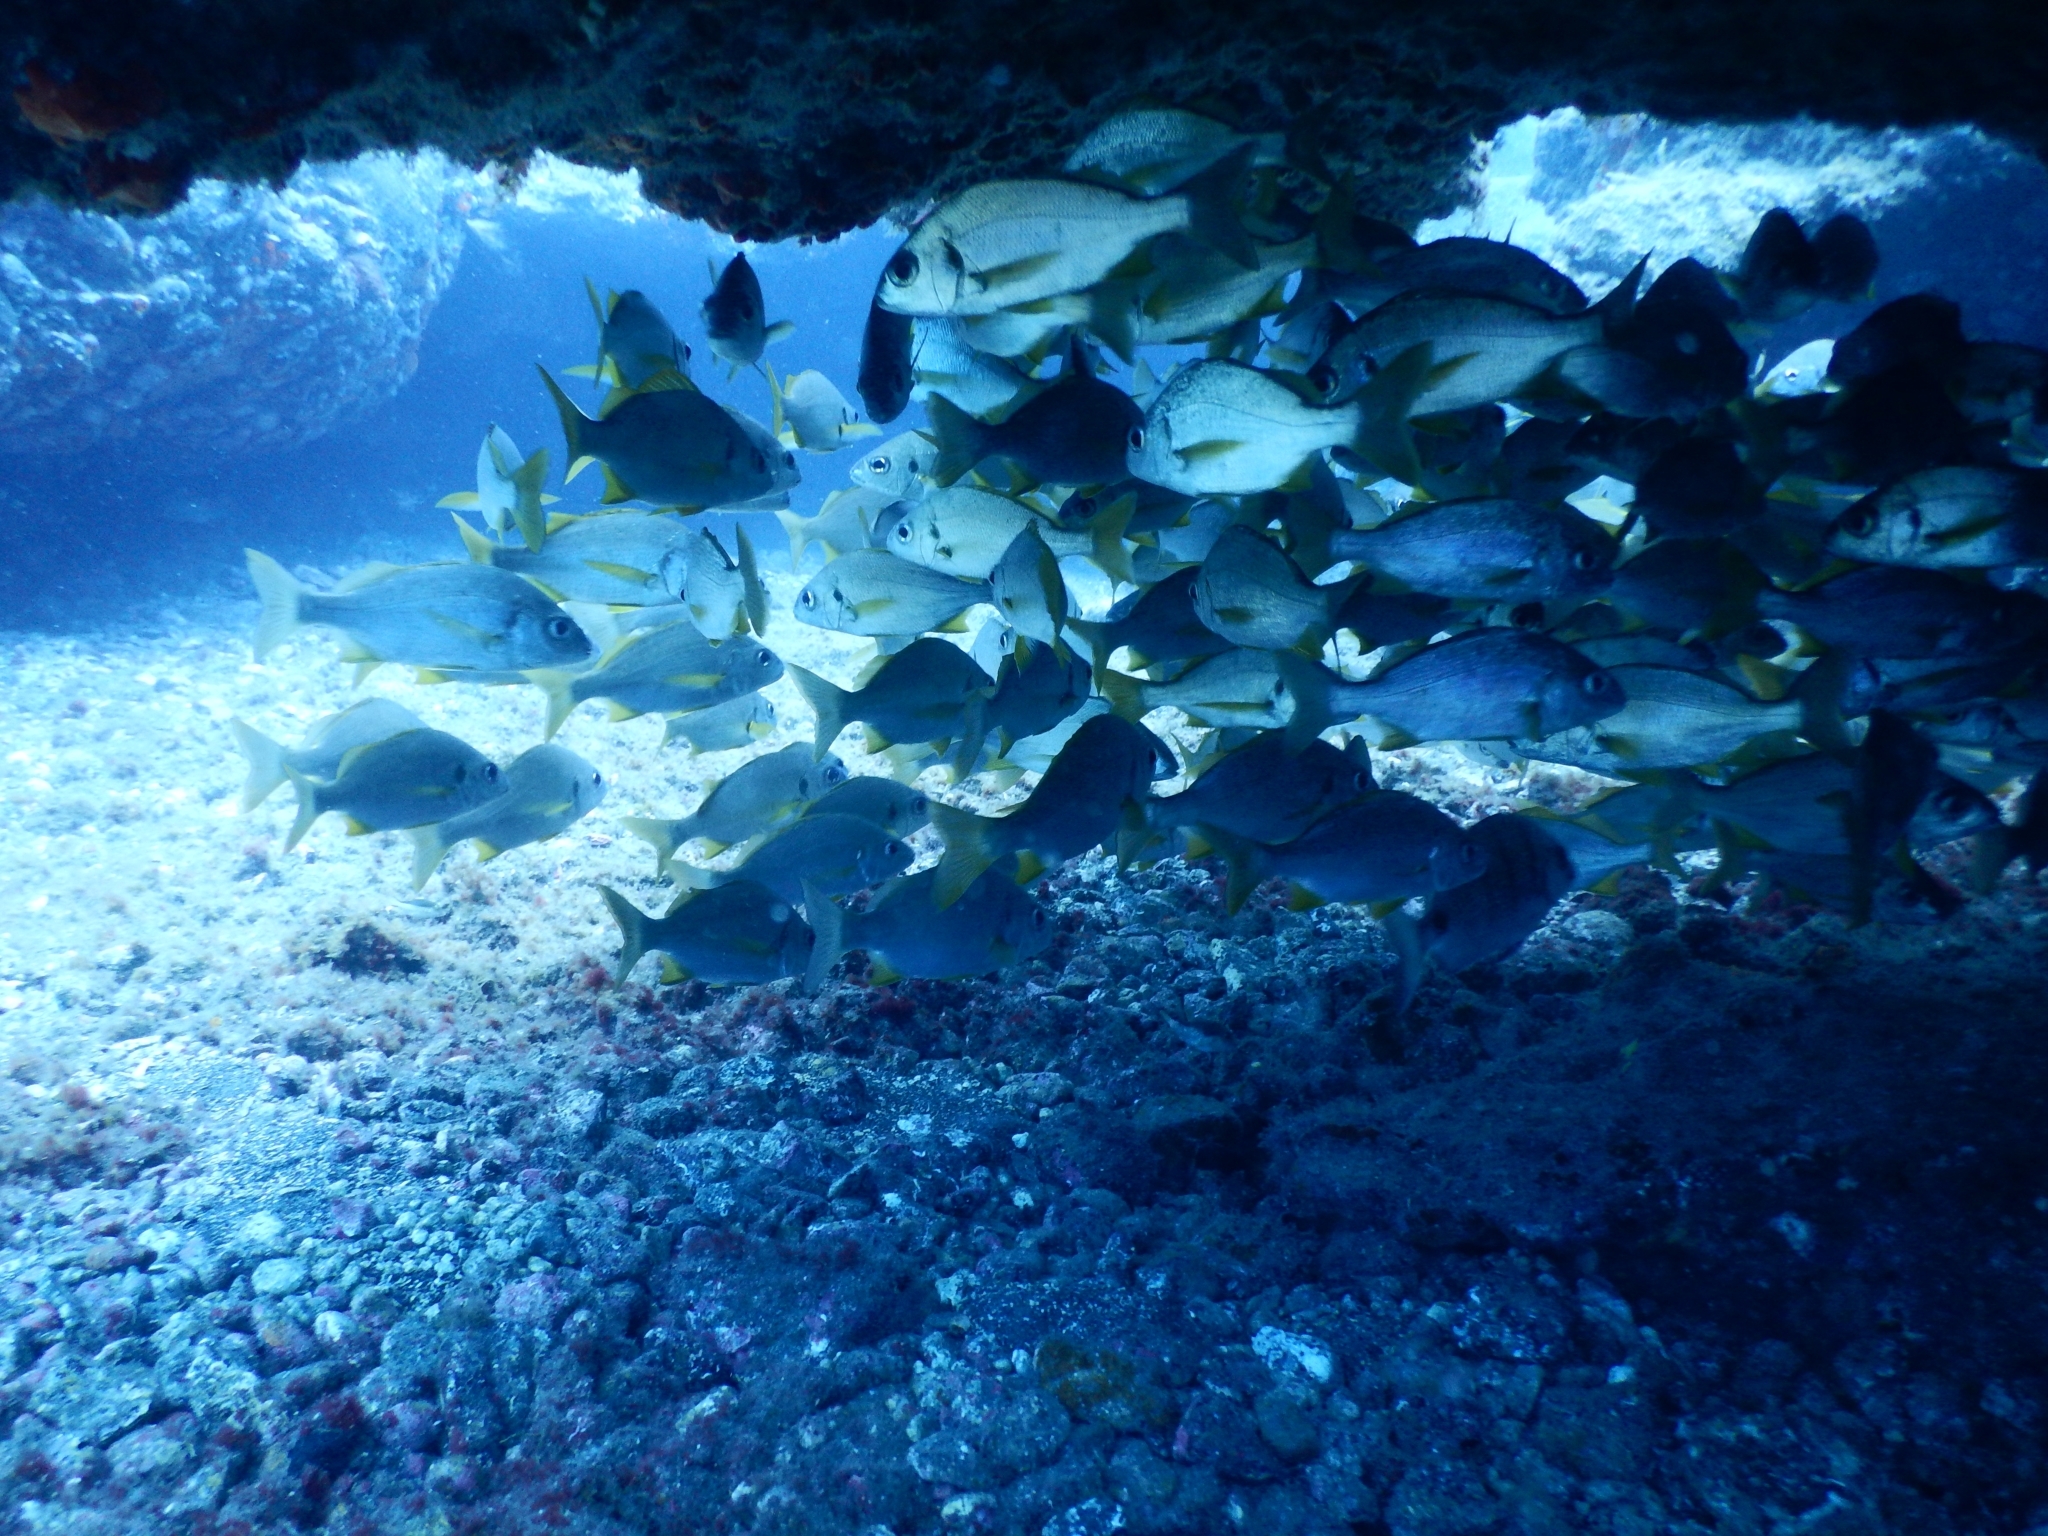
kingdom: Animalia
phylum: Chordata
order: Perciformes
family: Haemulidae
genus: Pomadasys
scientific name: Pomadasys incisus
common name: Bastard grunt
